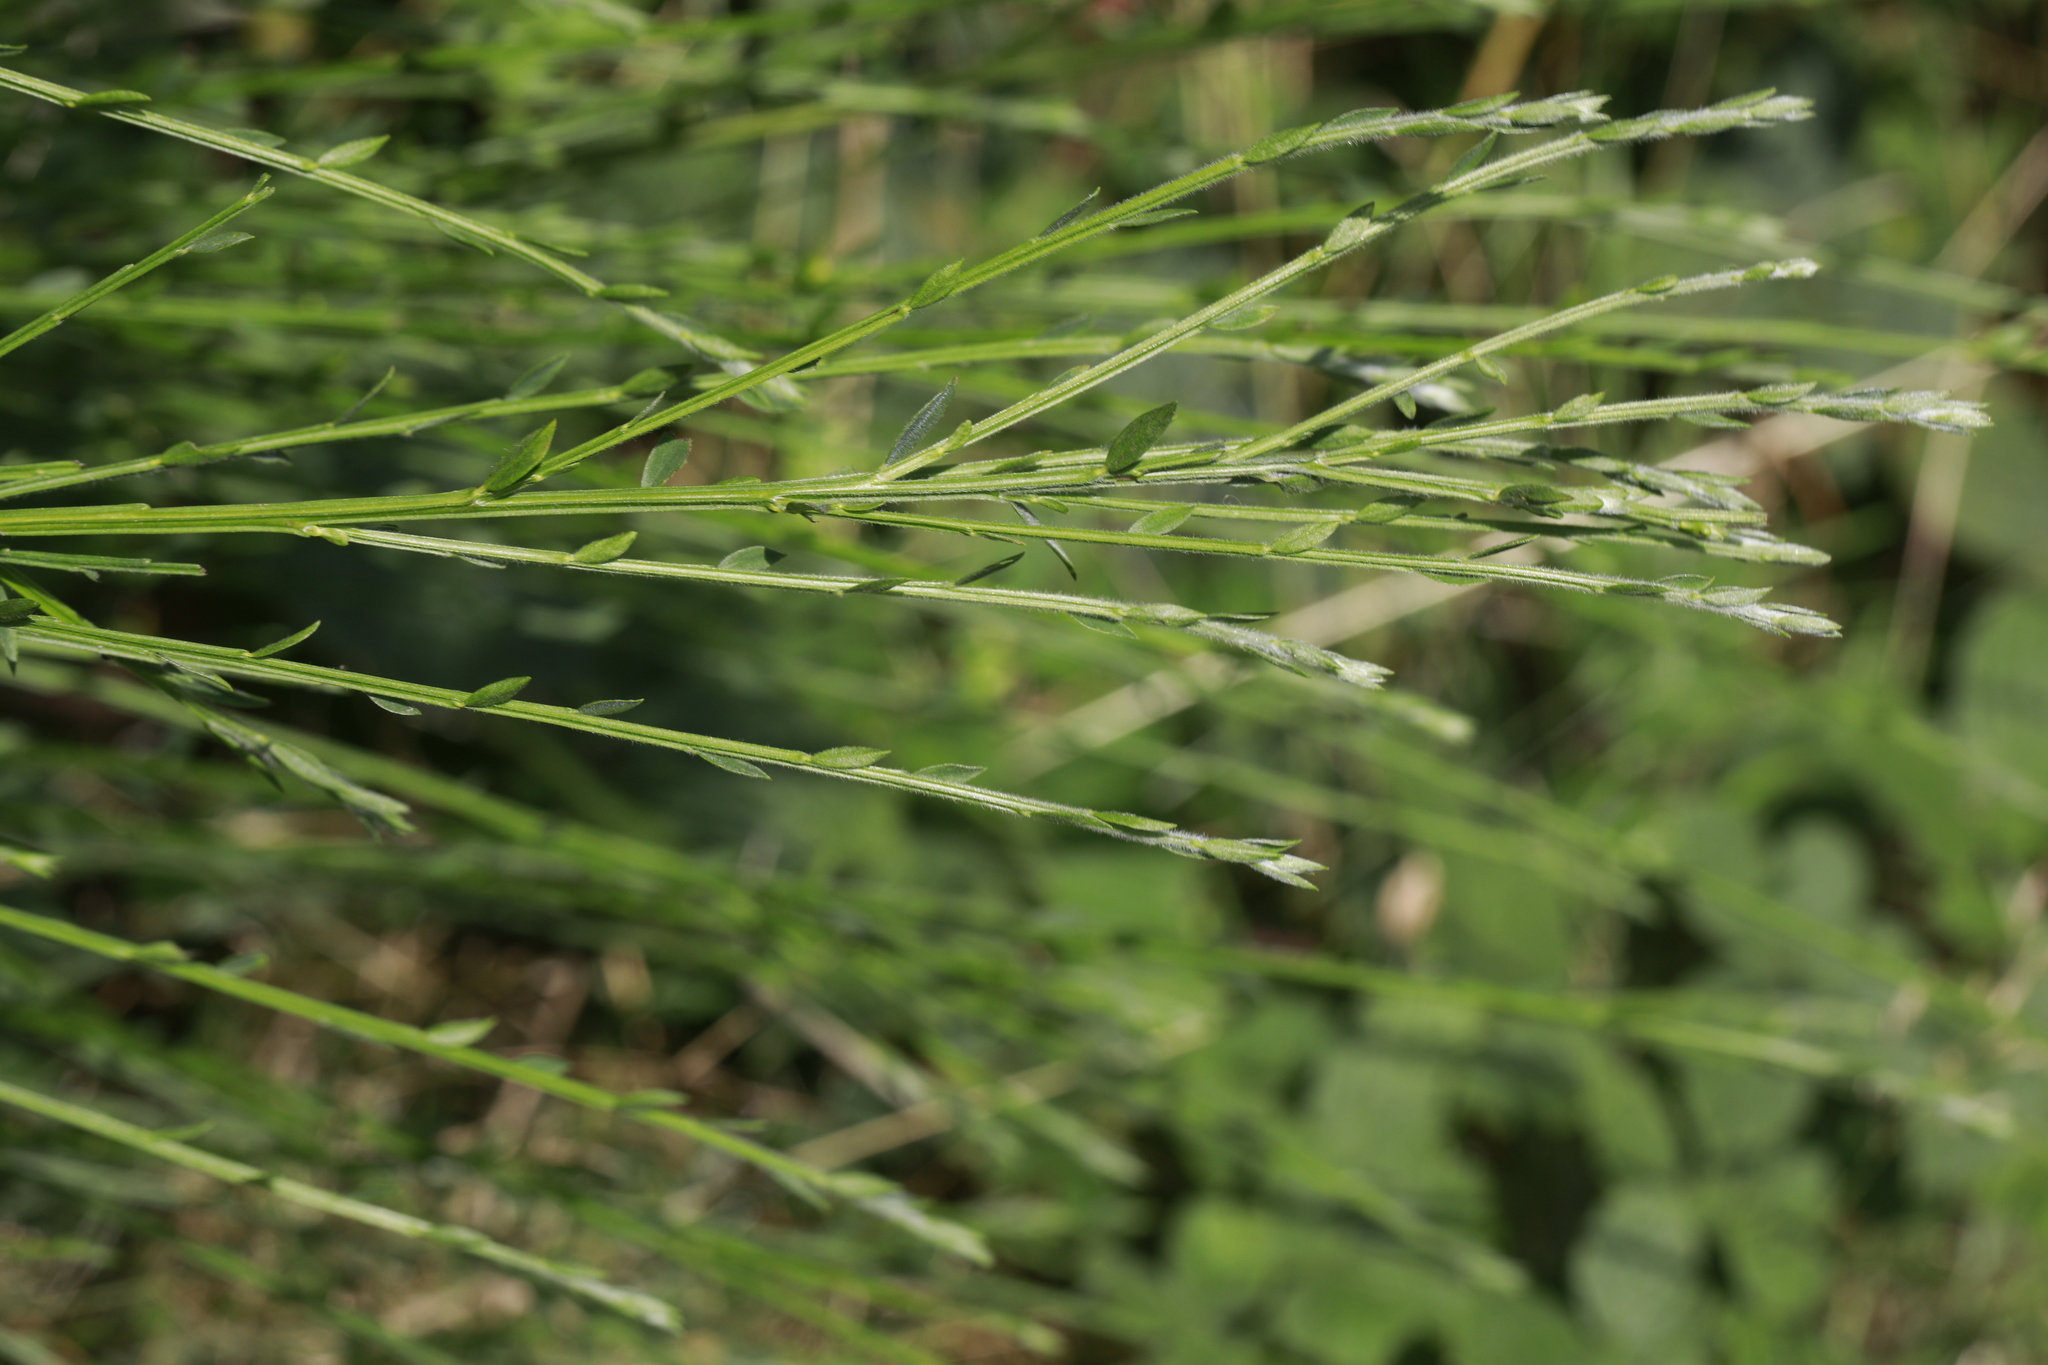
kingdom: Plantae
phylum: Tracheophyta
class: Magnoliopsida
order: Fabales
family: Fabaceae
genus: Cytisus
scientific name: Cytisus scoparius
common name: Scotch broom
